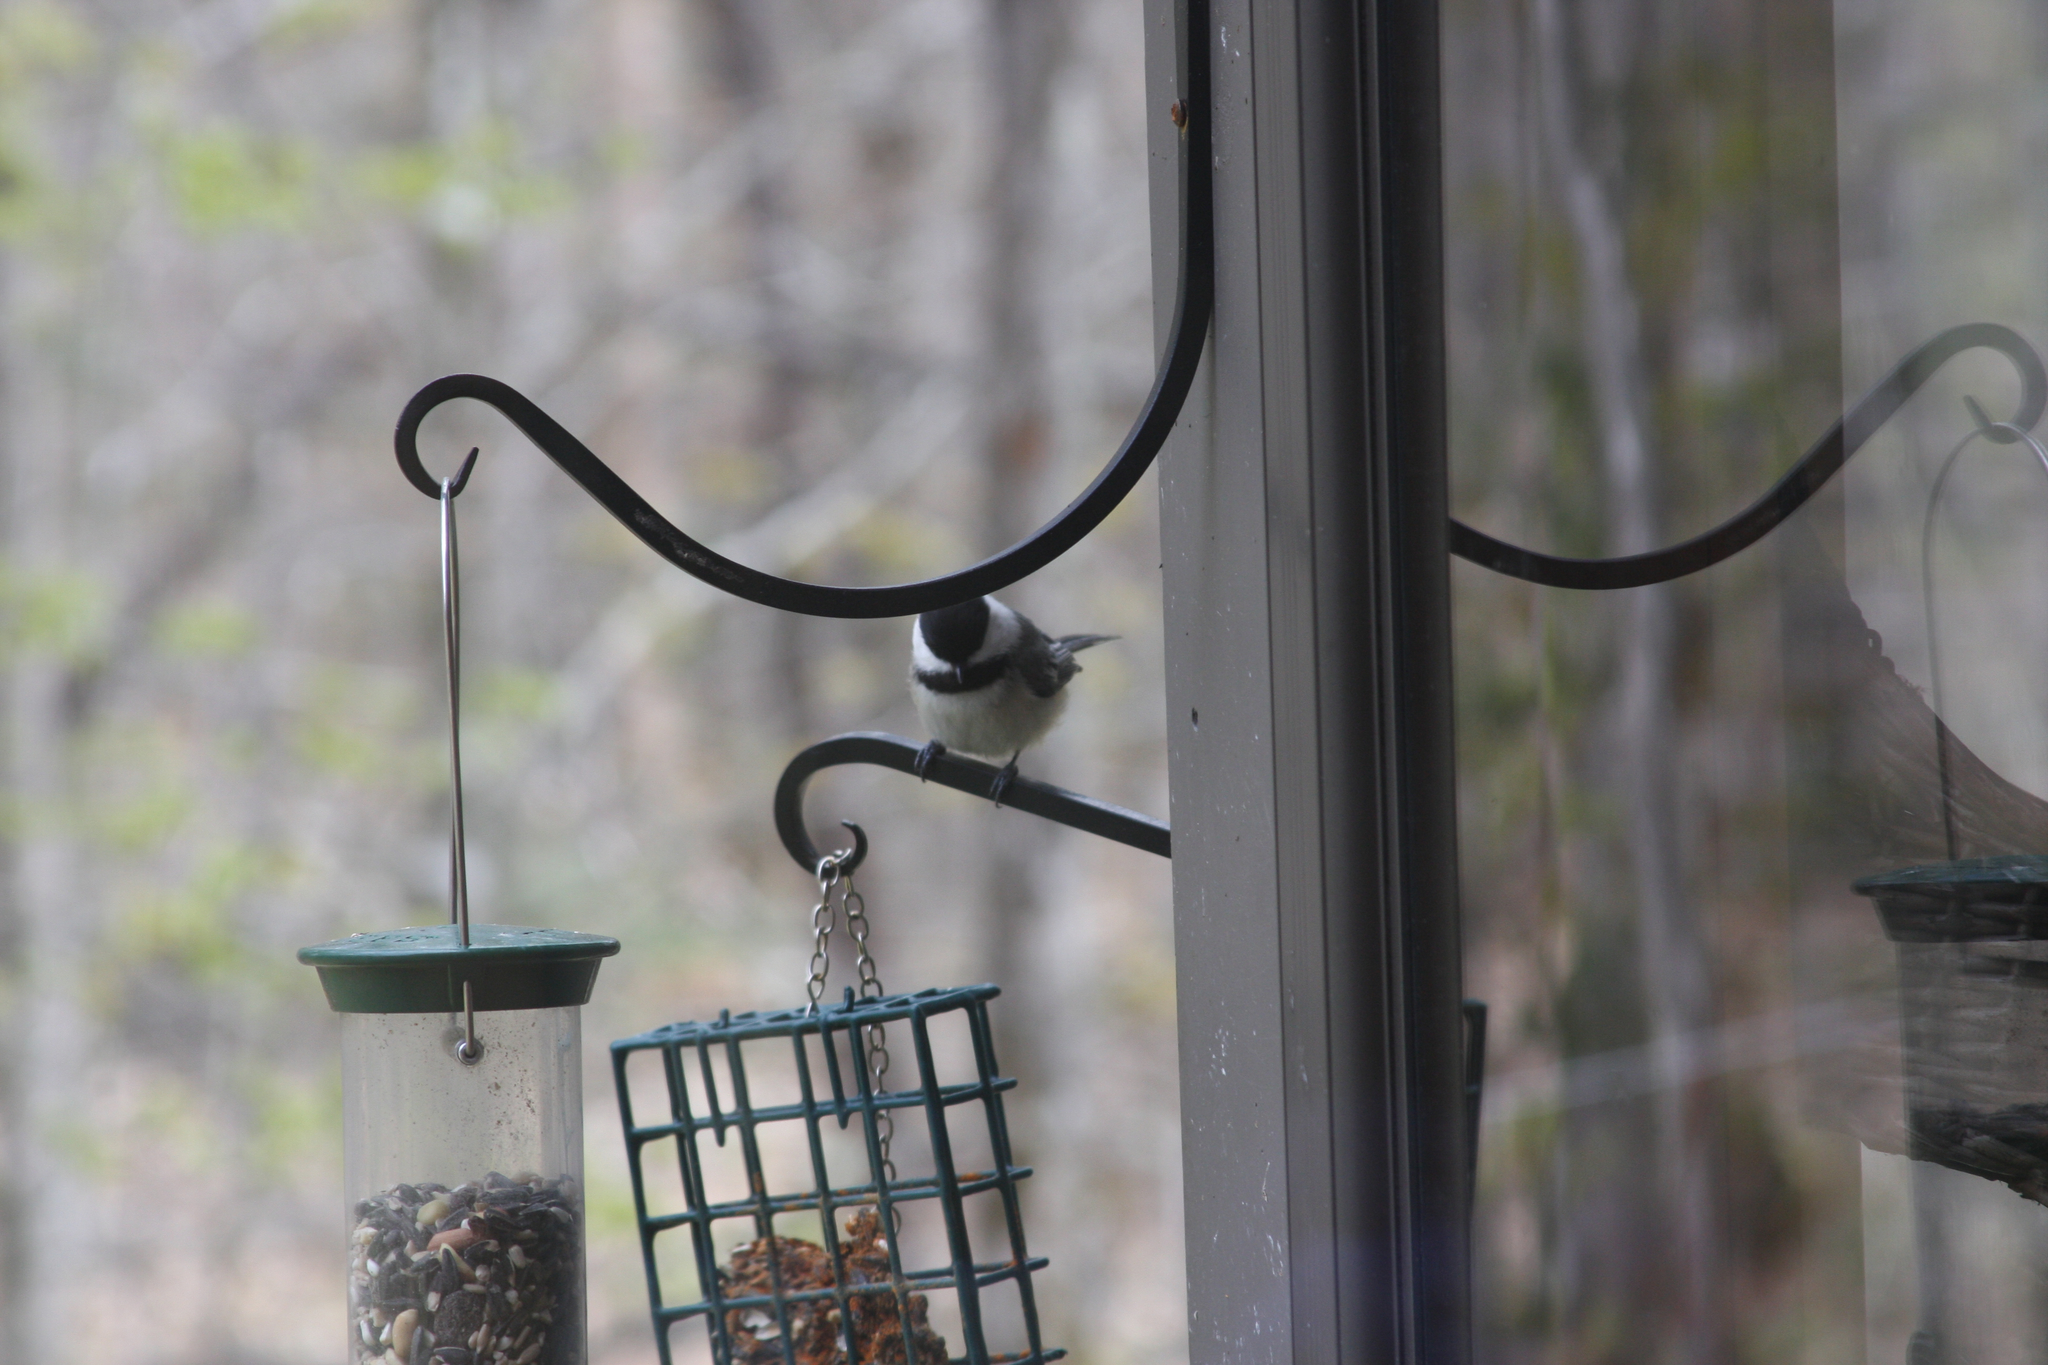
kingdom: Animalia
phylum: Chordata
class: Aves
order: Passeriformes
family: Paridae
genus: Poecile
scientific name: Poecile atricapillus
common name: Black-capped chickadee
